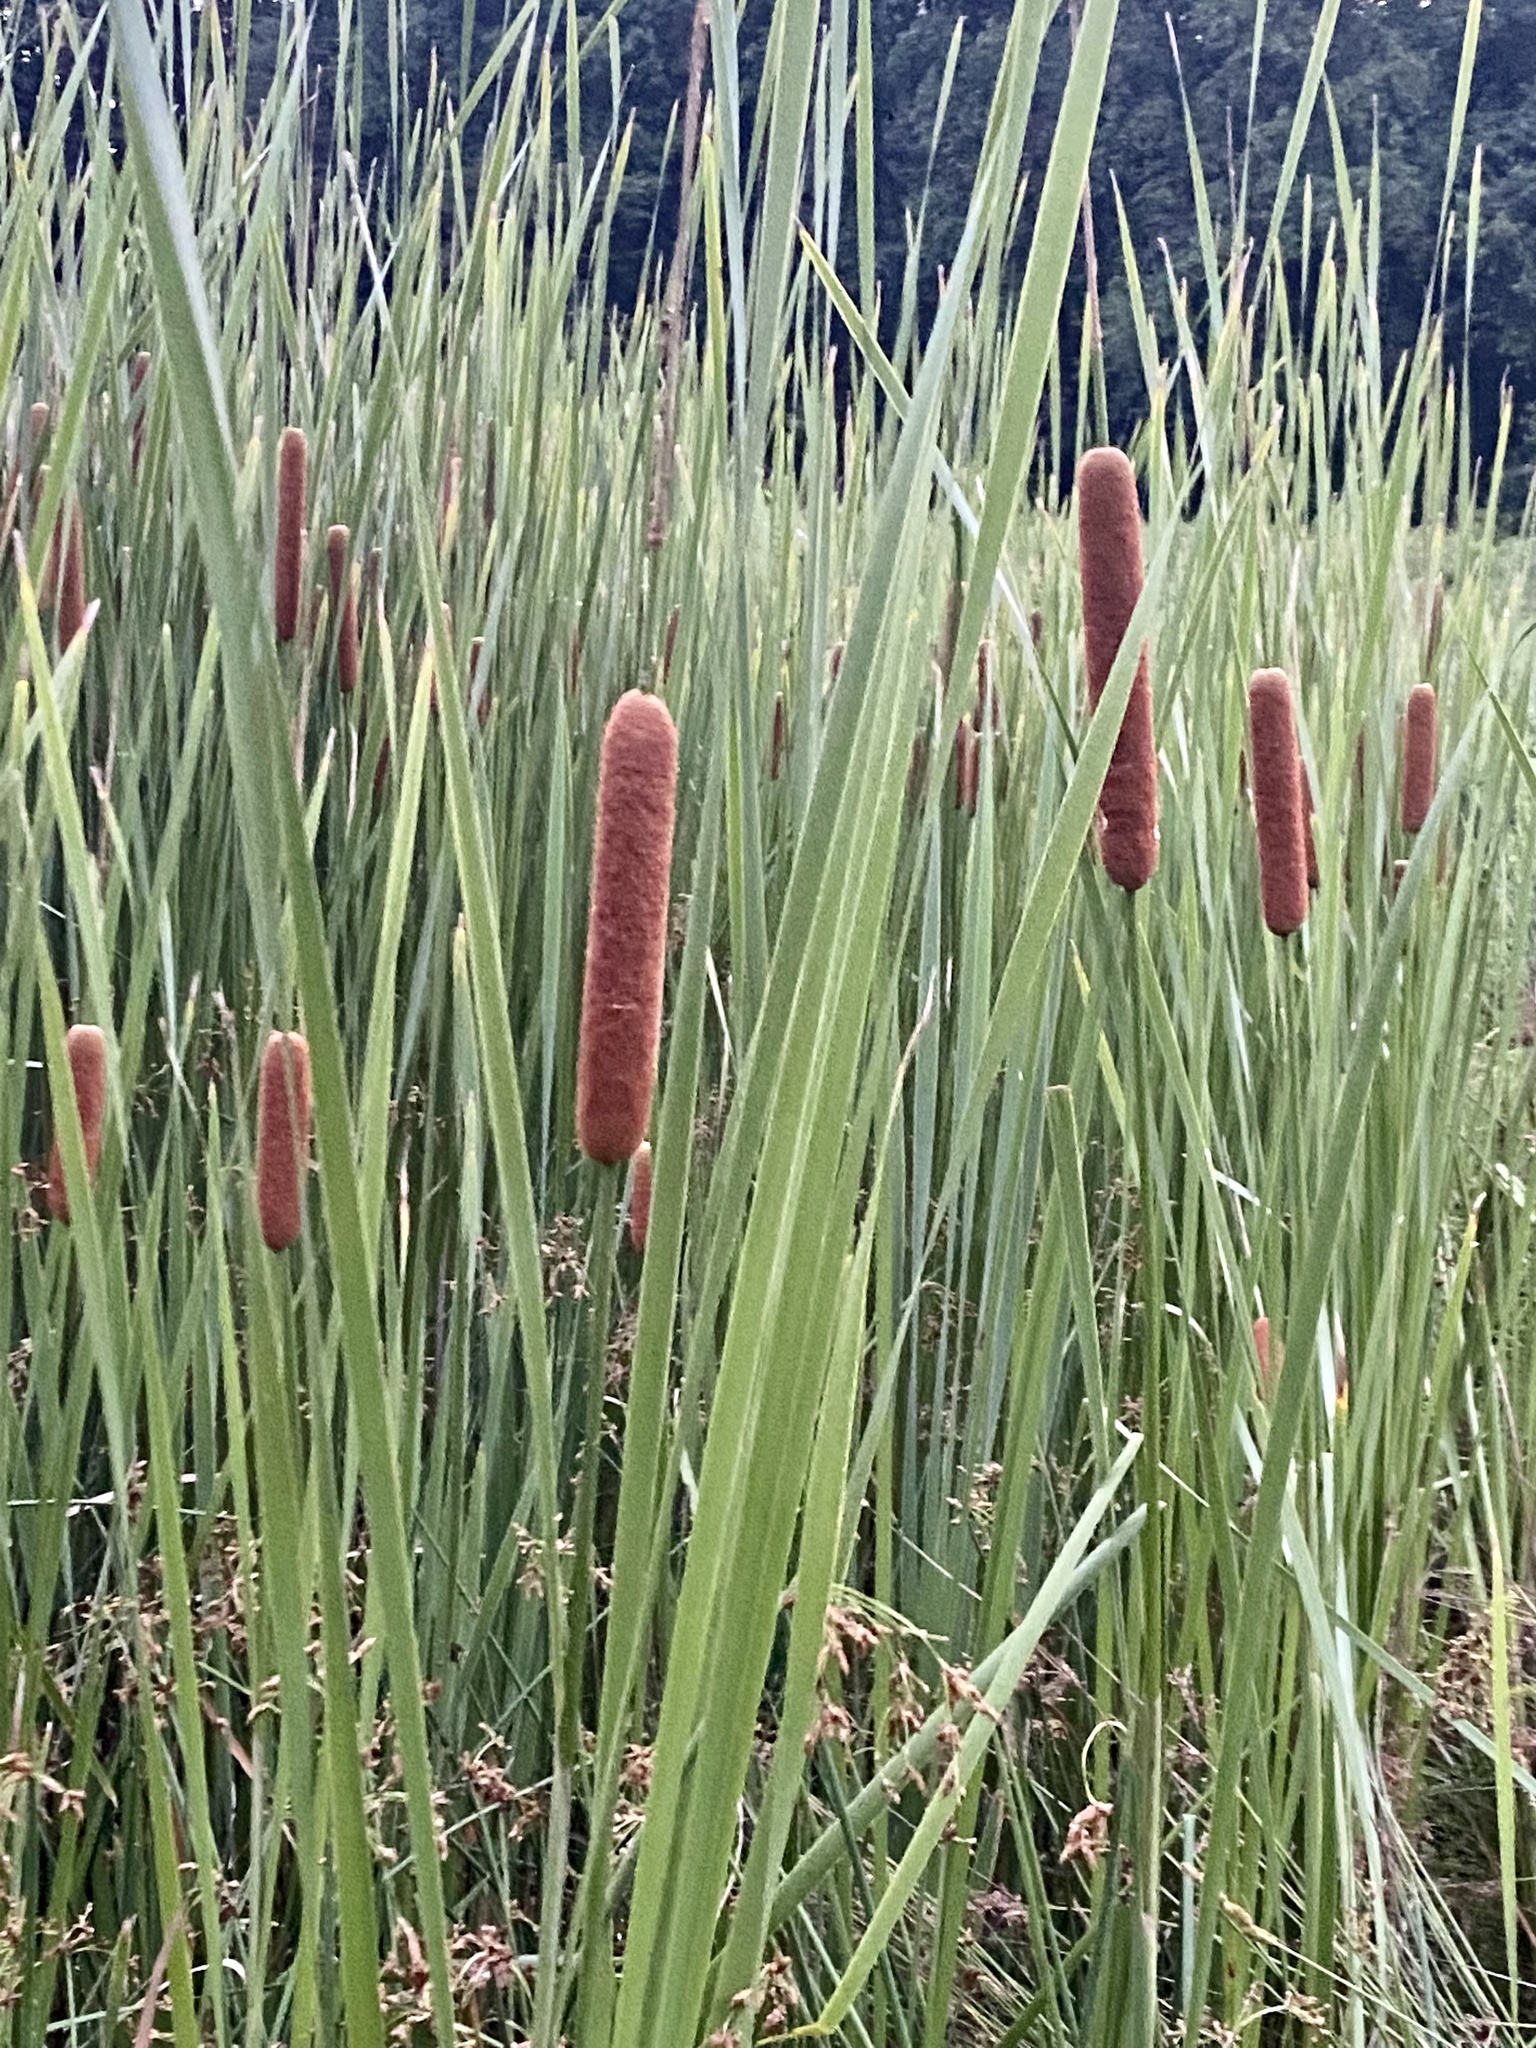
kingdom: Plantae
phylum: Tracheophyta
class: Liliopsida
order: Poales
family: Typhaceae
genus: Typha
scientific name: Typha angustifolia
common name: Lesser bulrush
